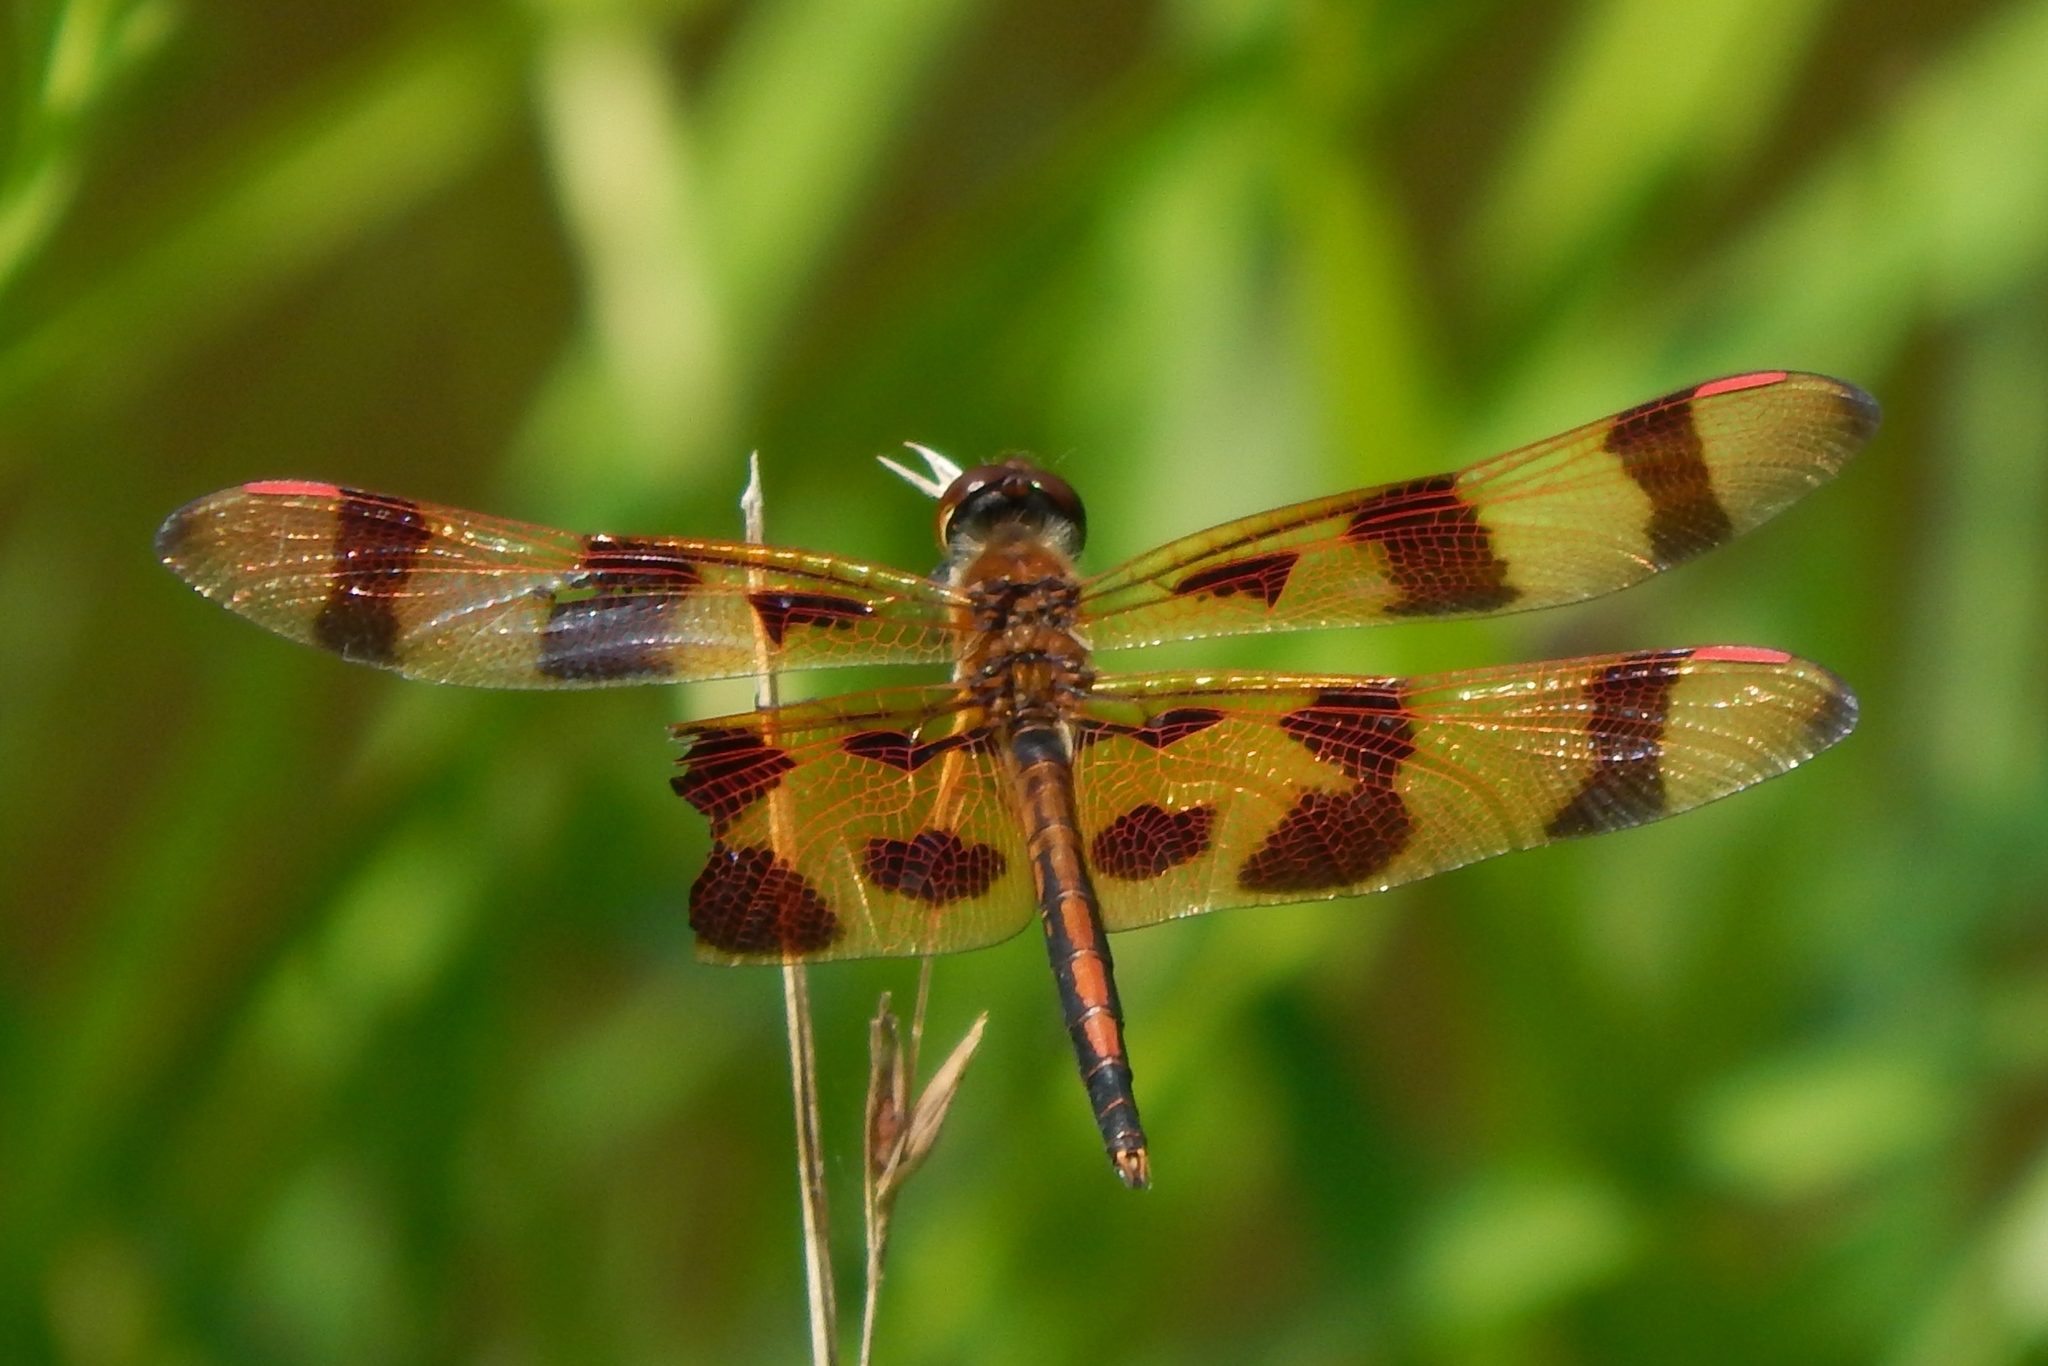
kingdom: Animalia
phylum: Arthropoda
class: Insecta
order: Odonata
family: Libellulidae
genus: Celithemis
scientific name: Celithemis eponina
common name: Halloween pennant
